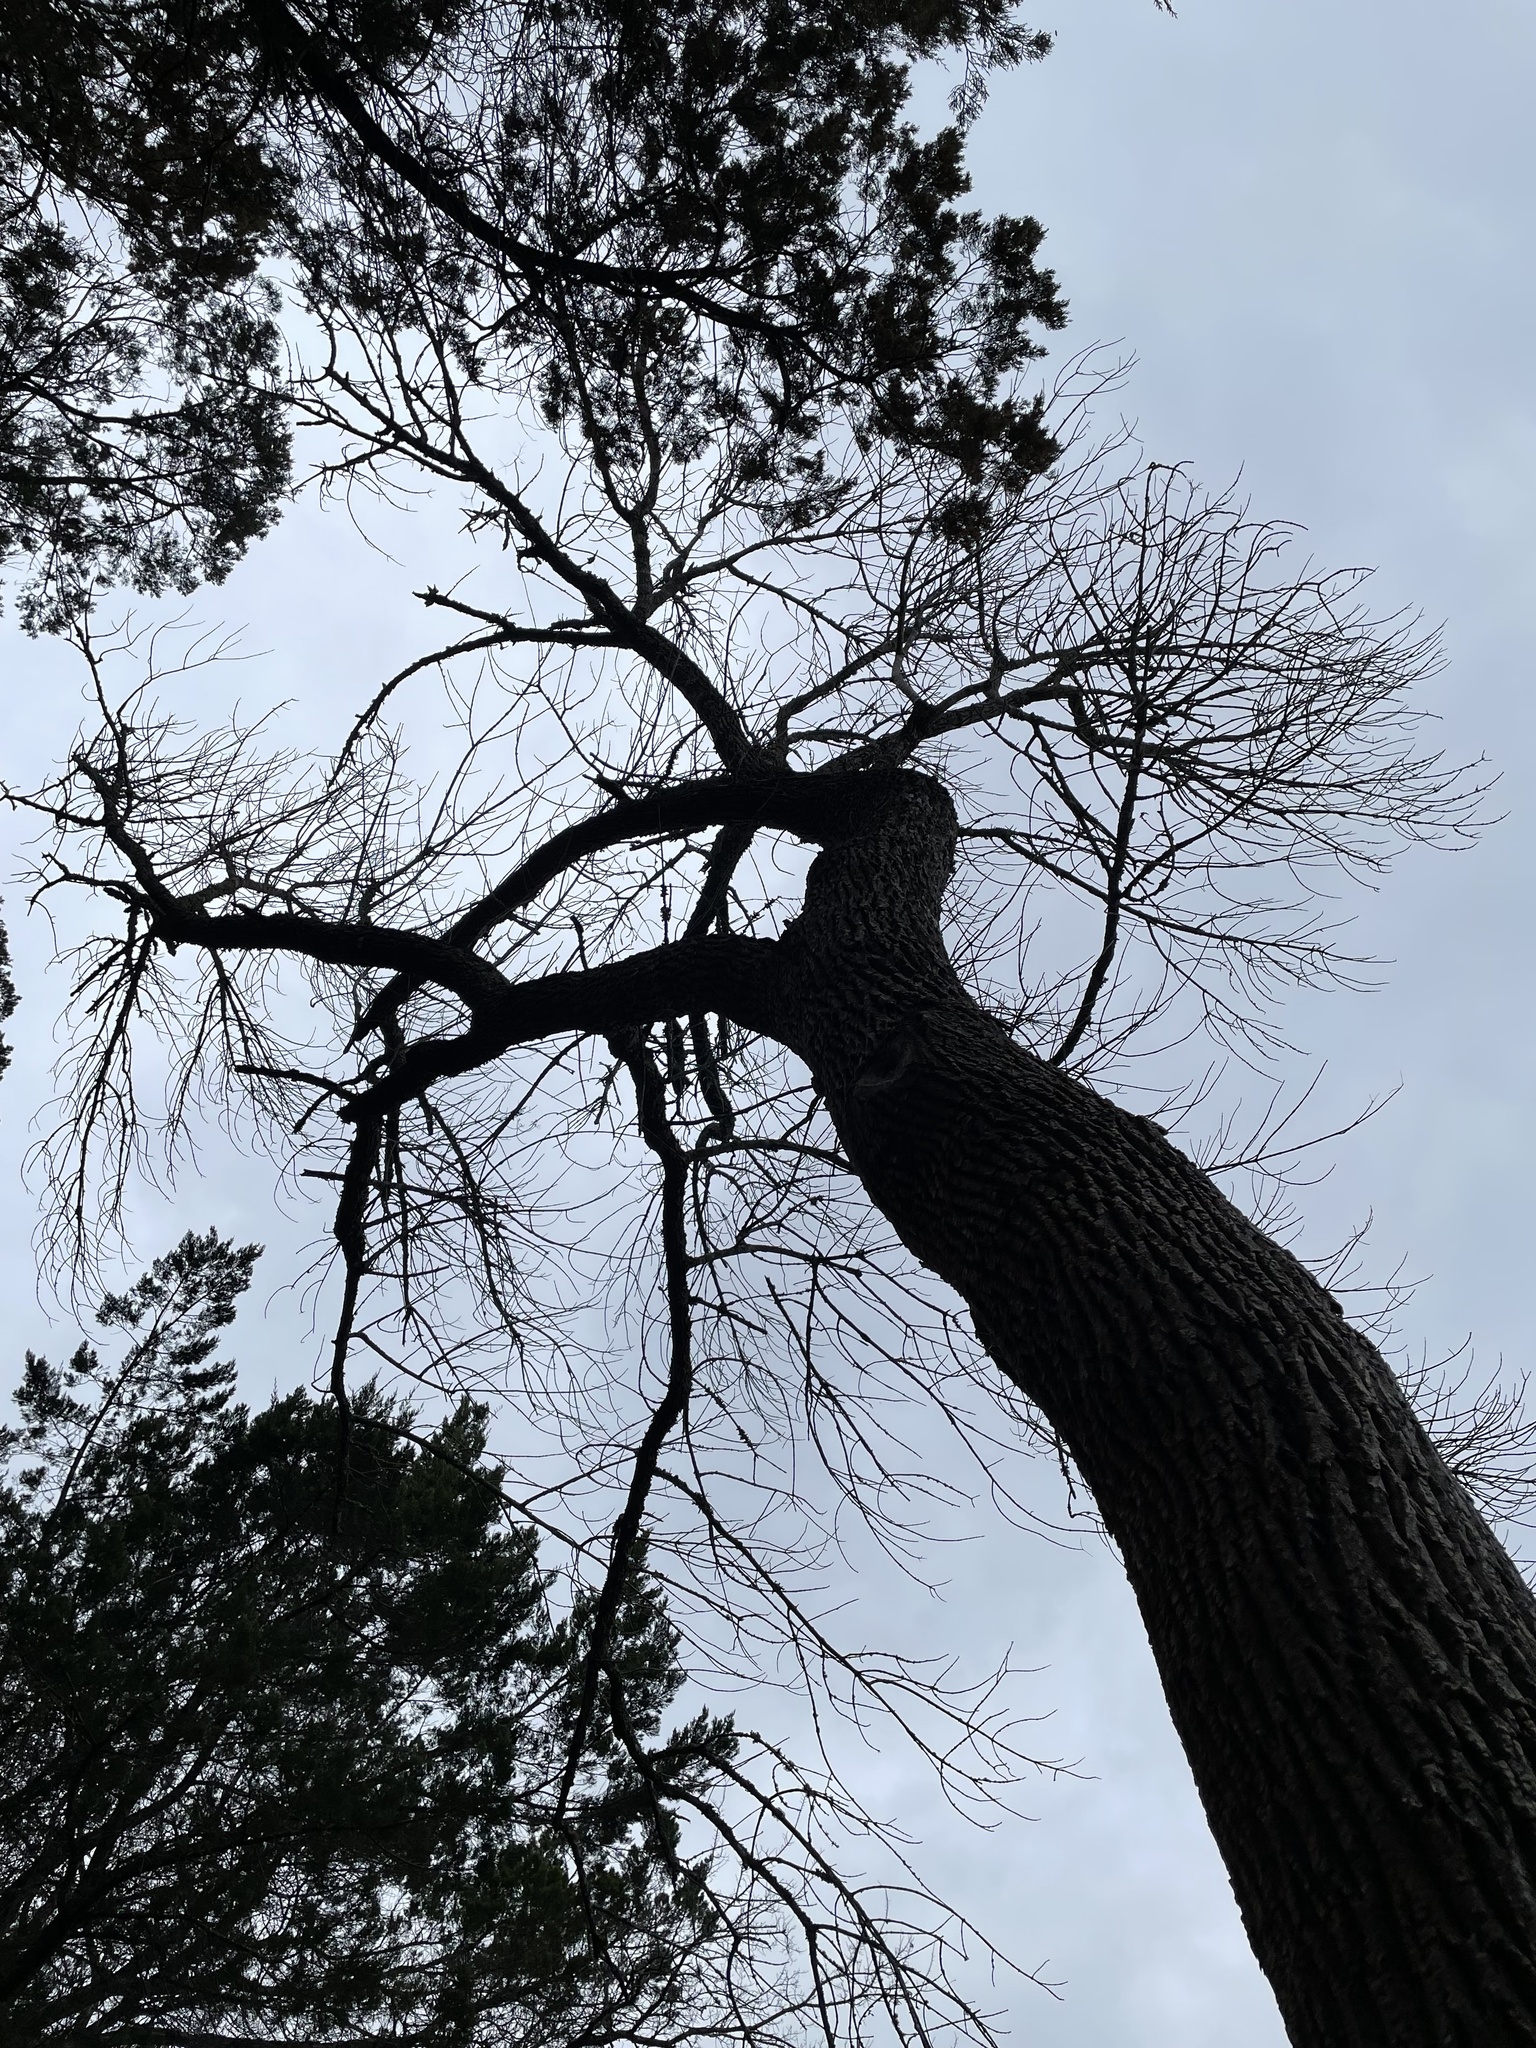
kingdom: Plantae
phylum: Tracheophyta
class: Magnoliopsida
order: Lamiales
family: Oleaceae
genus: Fraxinus
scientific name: Fraxinus albicans
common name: Texas ash
